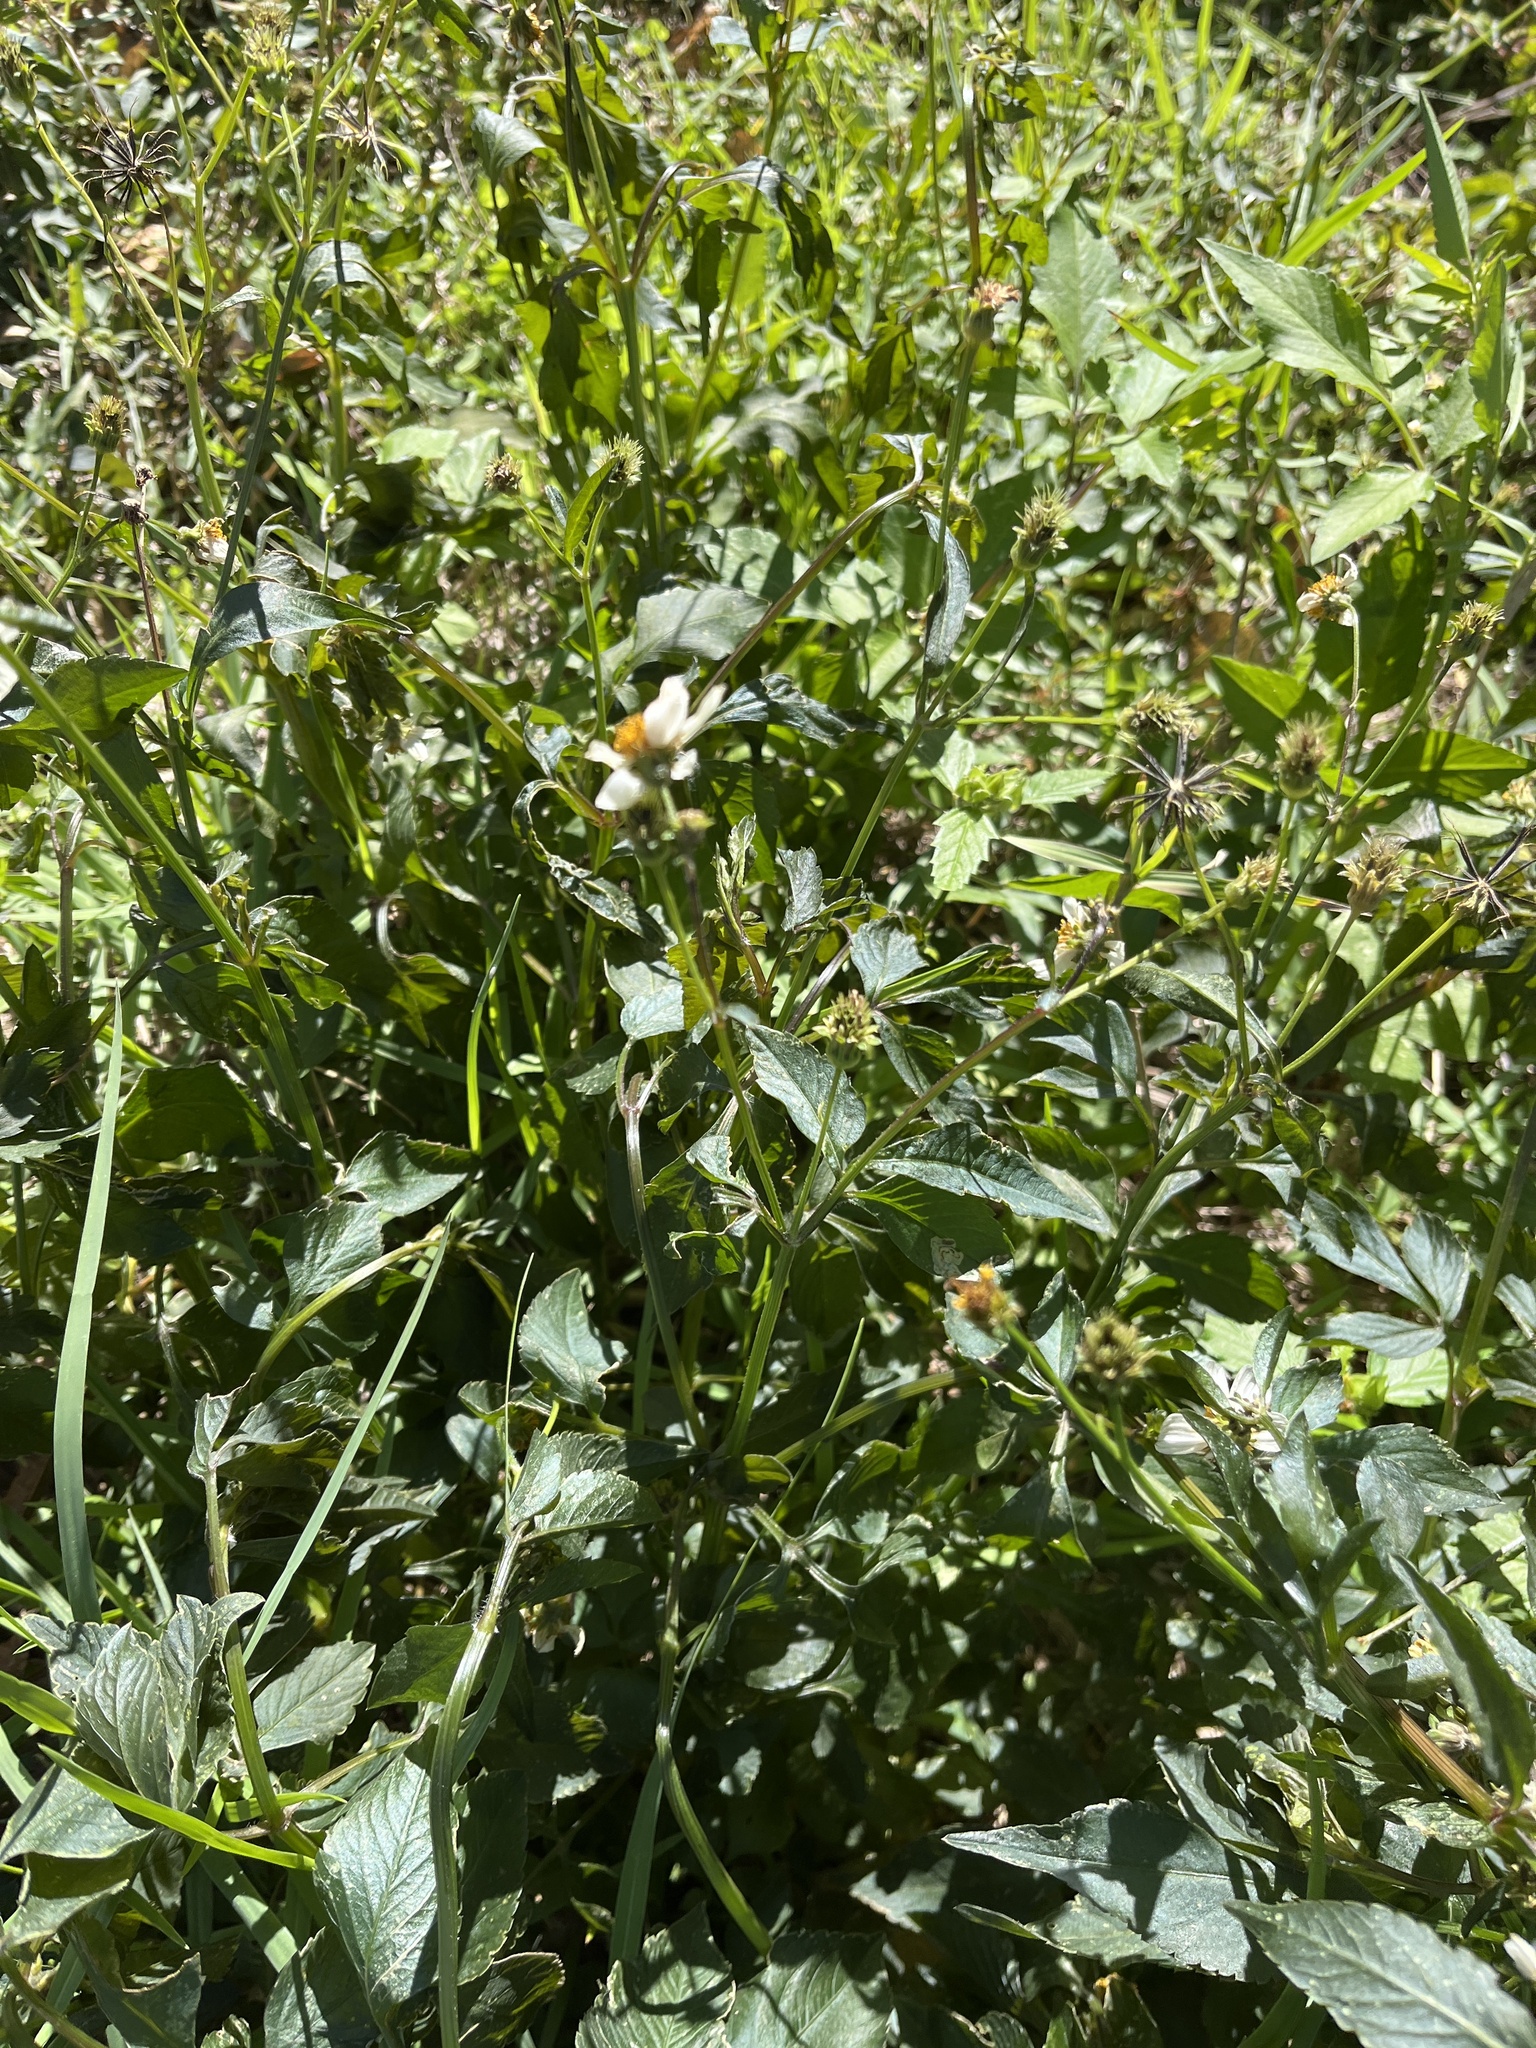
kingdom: Plantae
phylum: Tracheophyta
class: Magnoliopsida
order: Asterales
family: Asteraceae
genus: Bidens
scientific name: Bidens alba
